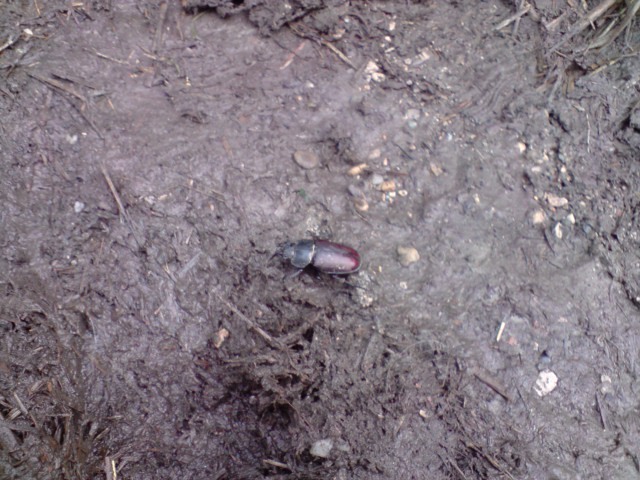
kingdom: Animalia
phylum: Arthropoda
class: Insecta
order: Coleoptera
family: Lucanidae
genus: Lucanus
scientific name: Lucanus cervus
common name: Stag beetle
